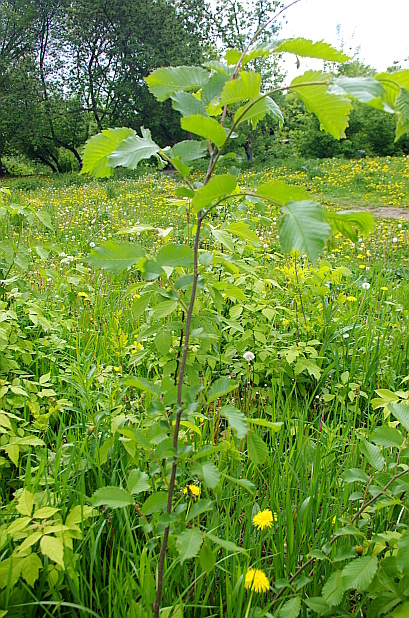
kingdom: Plantae
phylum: Tracheophyta
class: Magnoliopsida
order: Rosales
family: Ulmaceae
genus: Ulmus
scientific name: Ulmus laevis
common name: European white-elm
